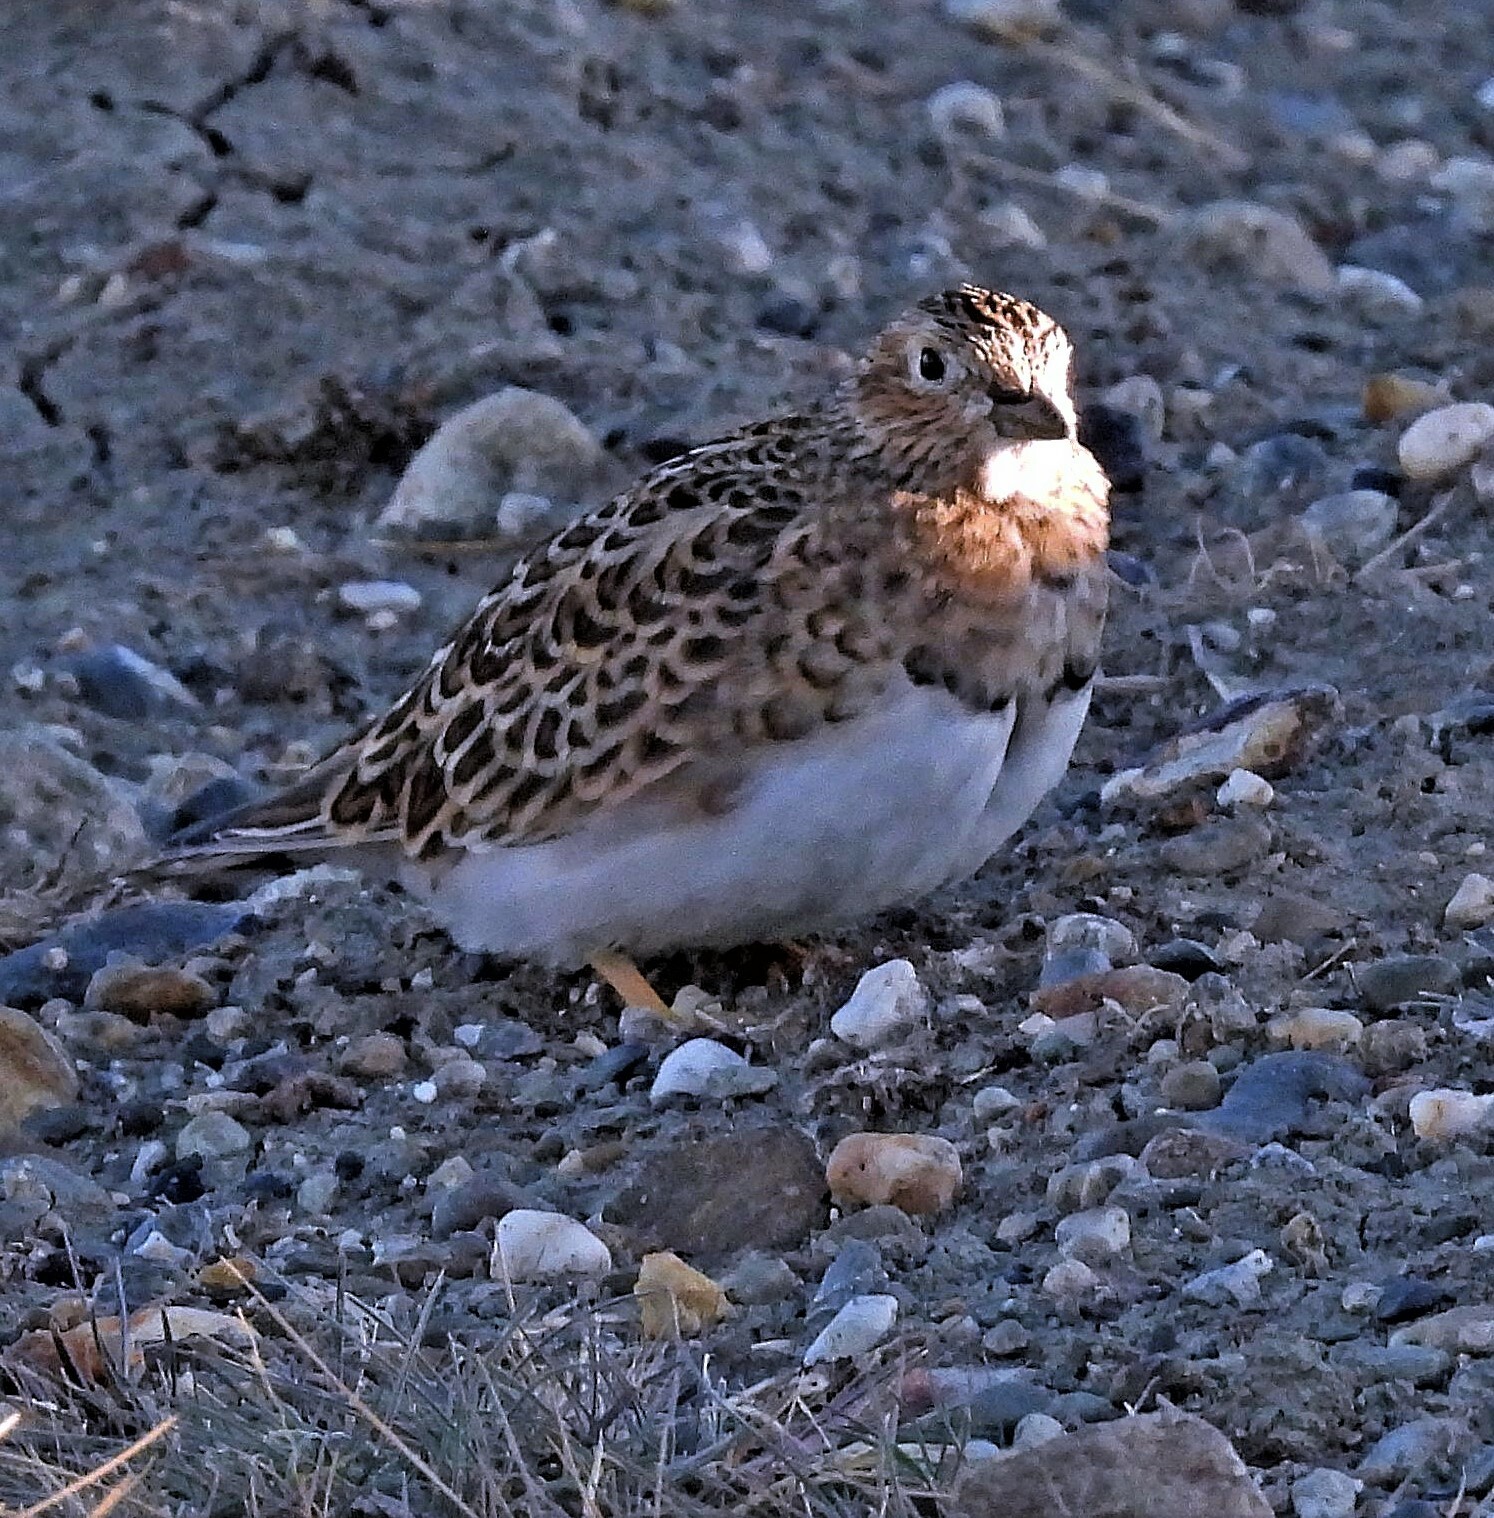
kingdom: Animalia
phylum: Chordata
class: Aves
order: Charadriiformes
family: Thinocoridae
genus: Thinocorus
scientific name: Thinocorus rumicivorus
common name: Least seedsnipe
